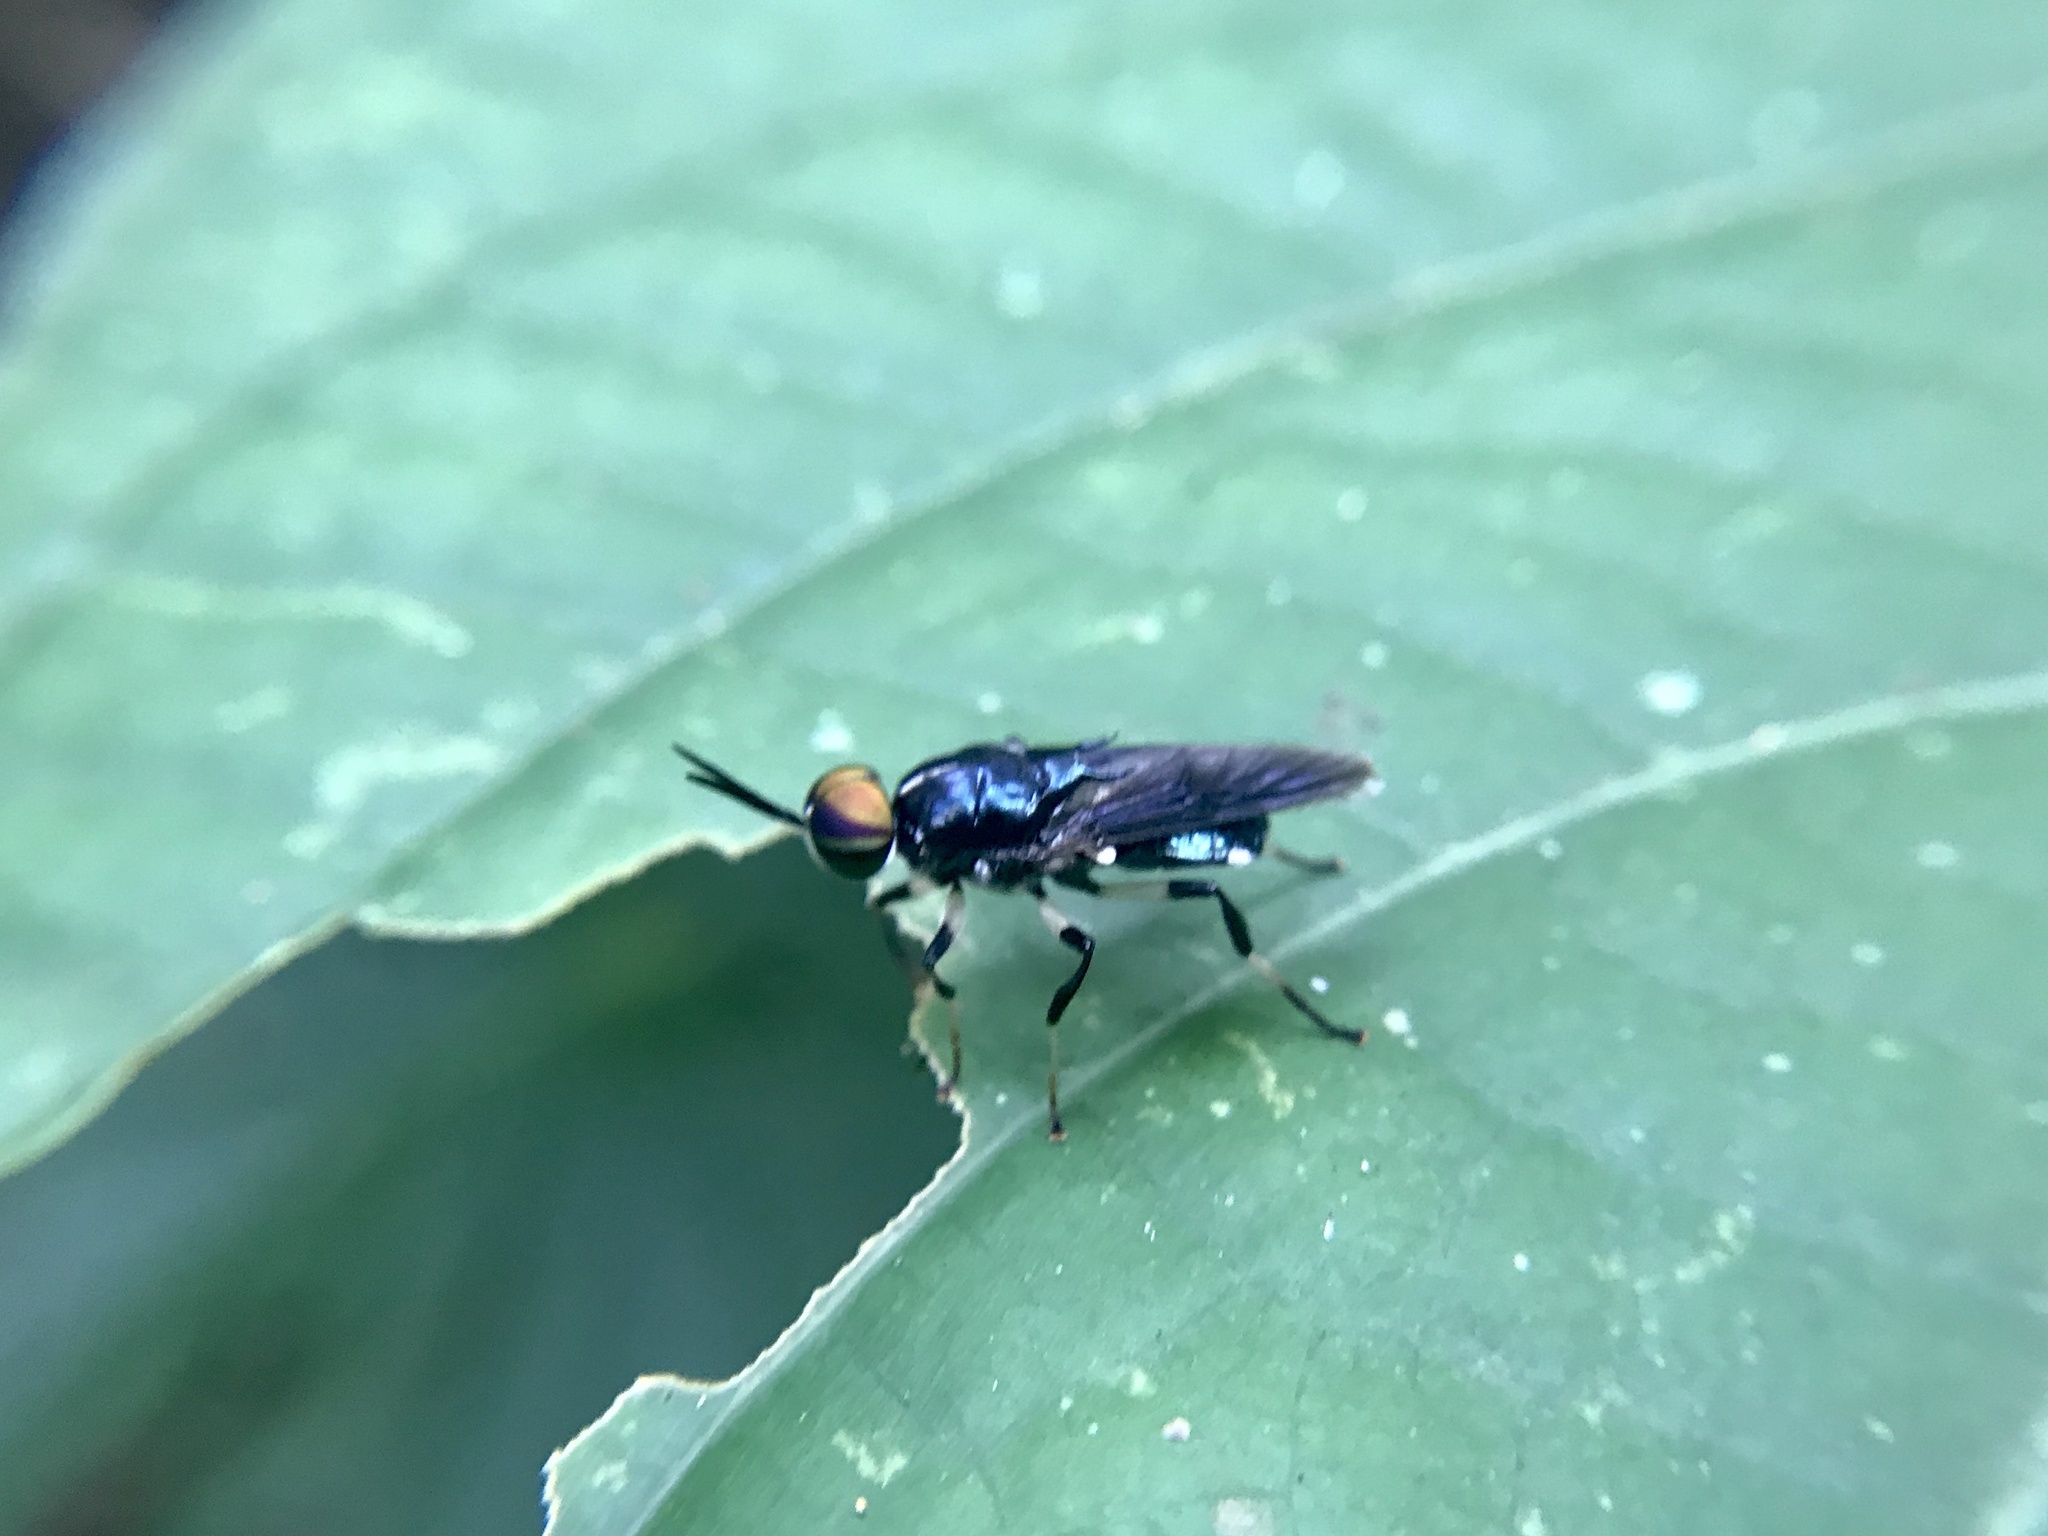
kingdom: Animalia
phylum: Arthropoda
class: Insecta
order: Diptera
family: Stratiomyidae
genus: Cyphomyia
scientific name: Cyphomyia varipes
